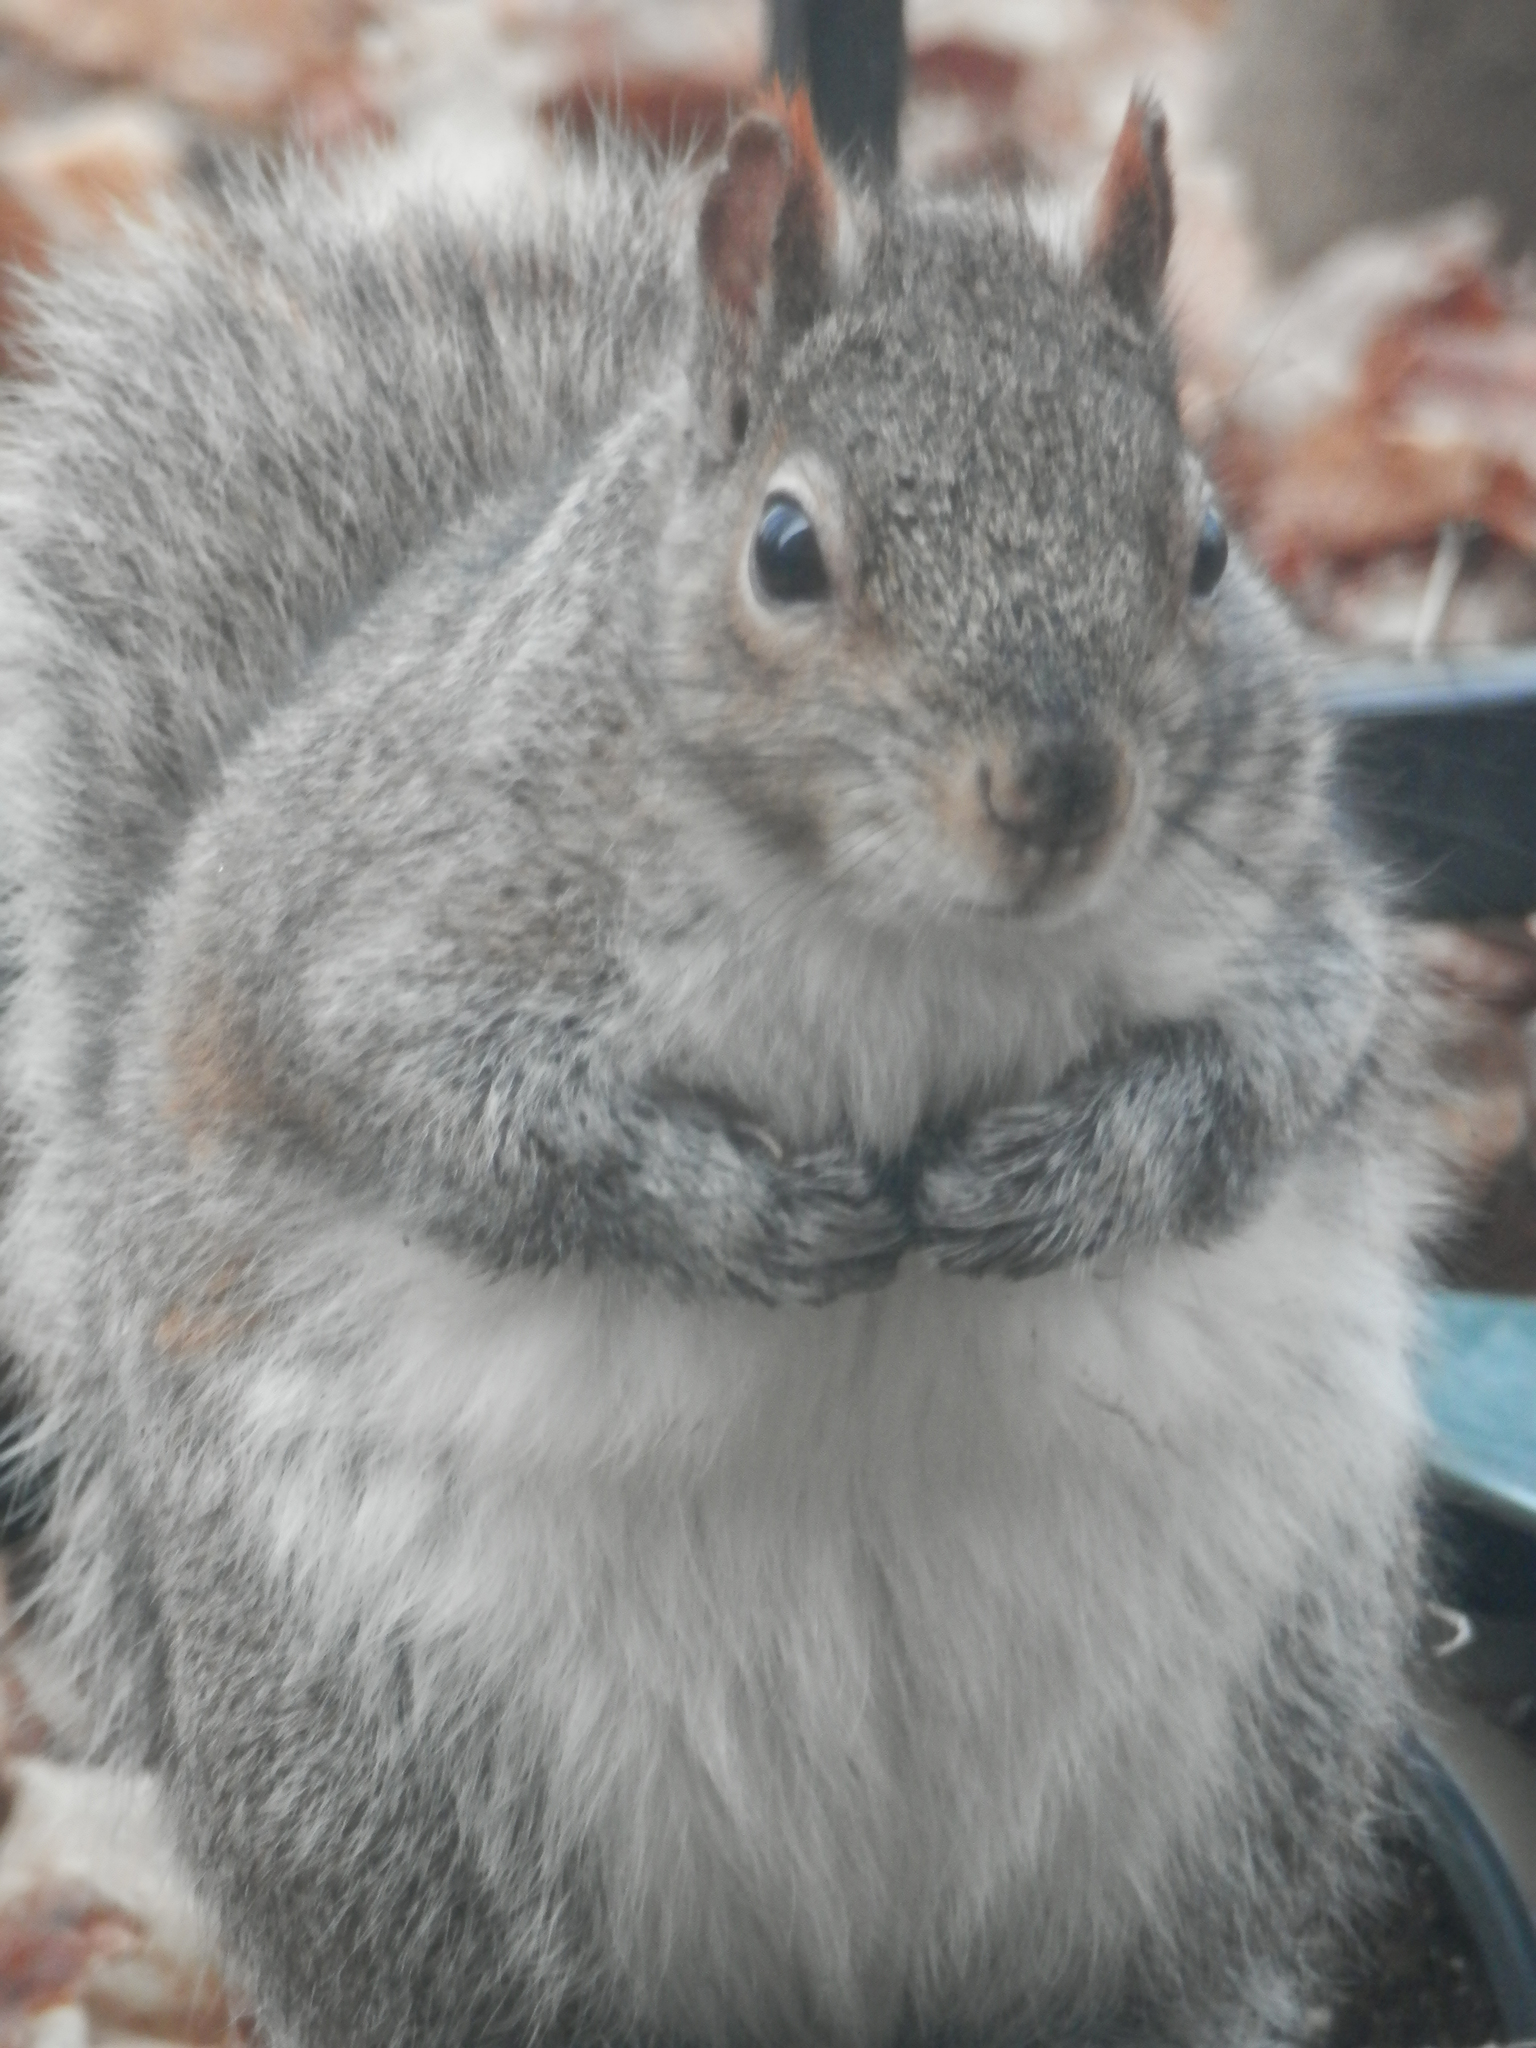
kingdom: Animalia
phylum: Chordata
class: Mammalia
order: Rodentia
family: Sciuridae
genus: Sciurus
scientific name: Sciurus carolinensis
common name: Eastern gray squirrel
